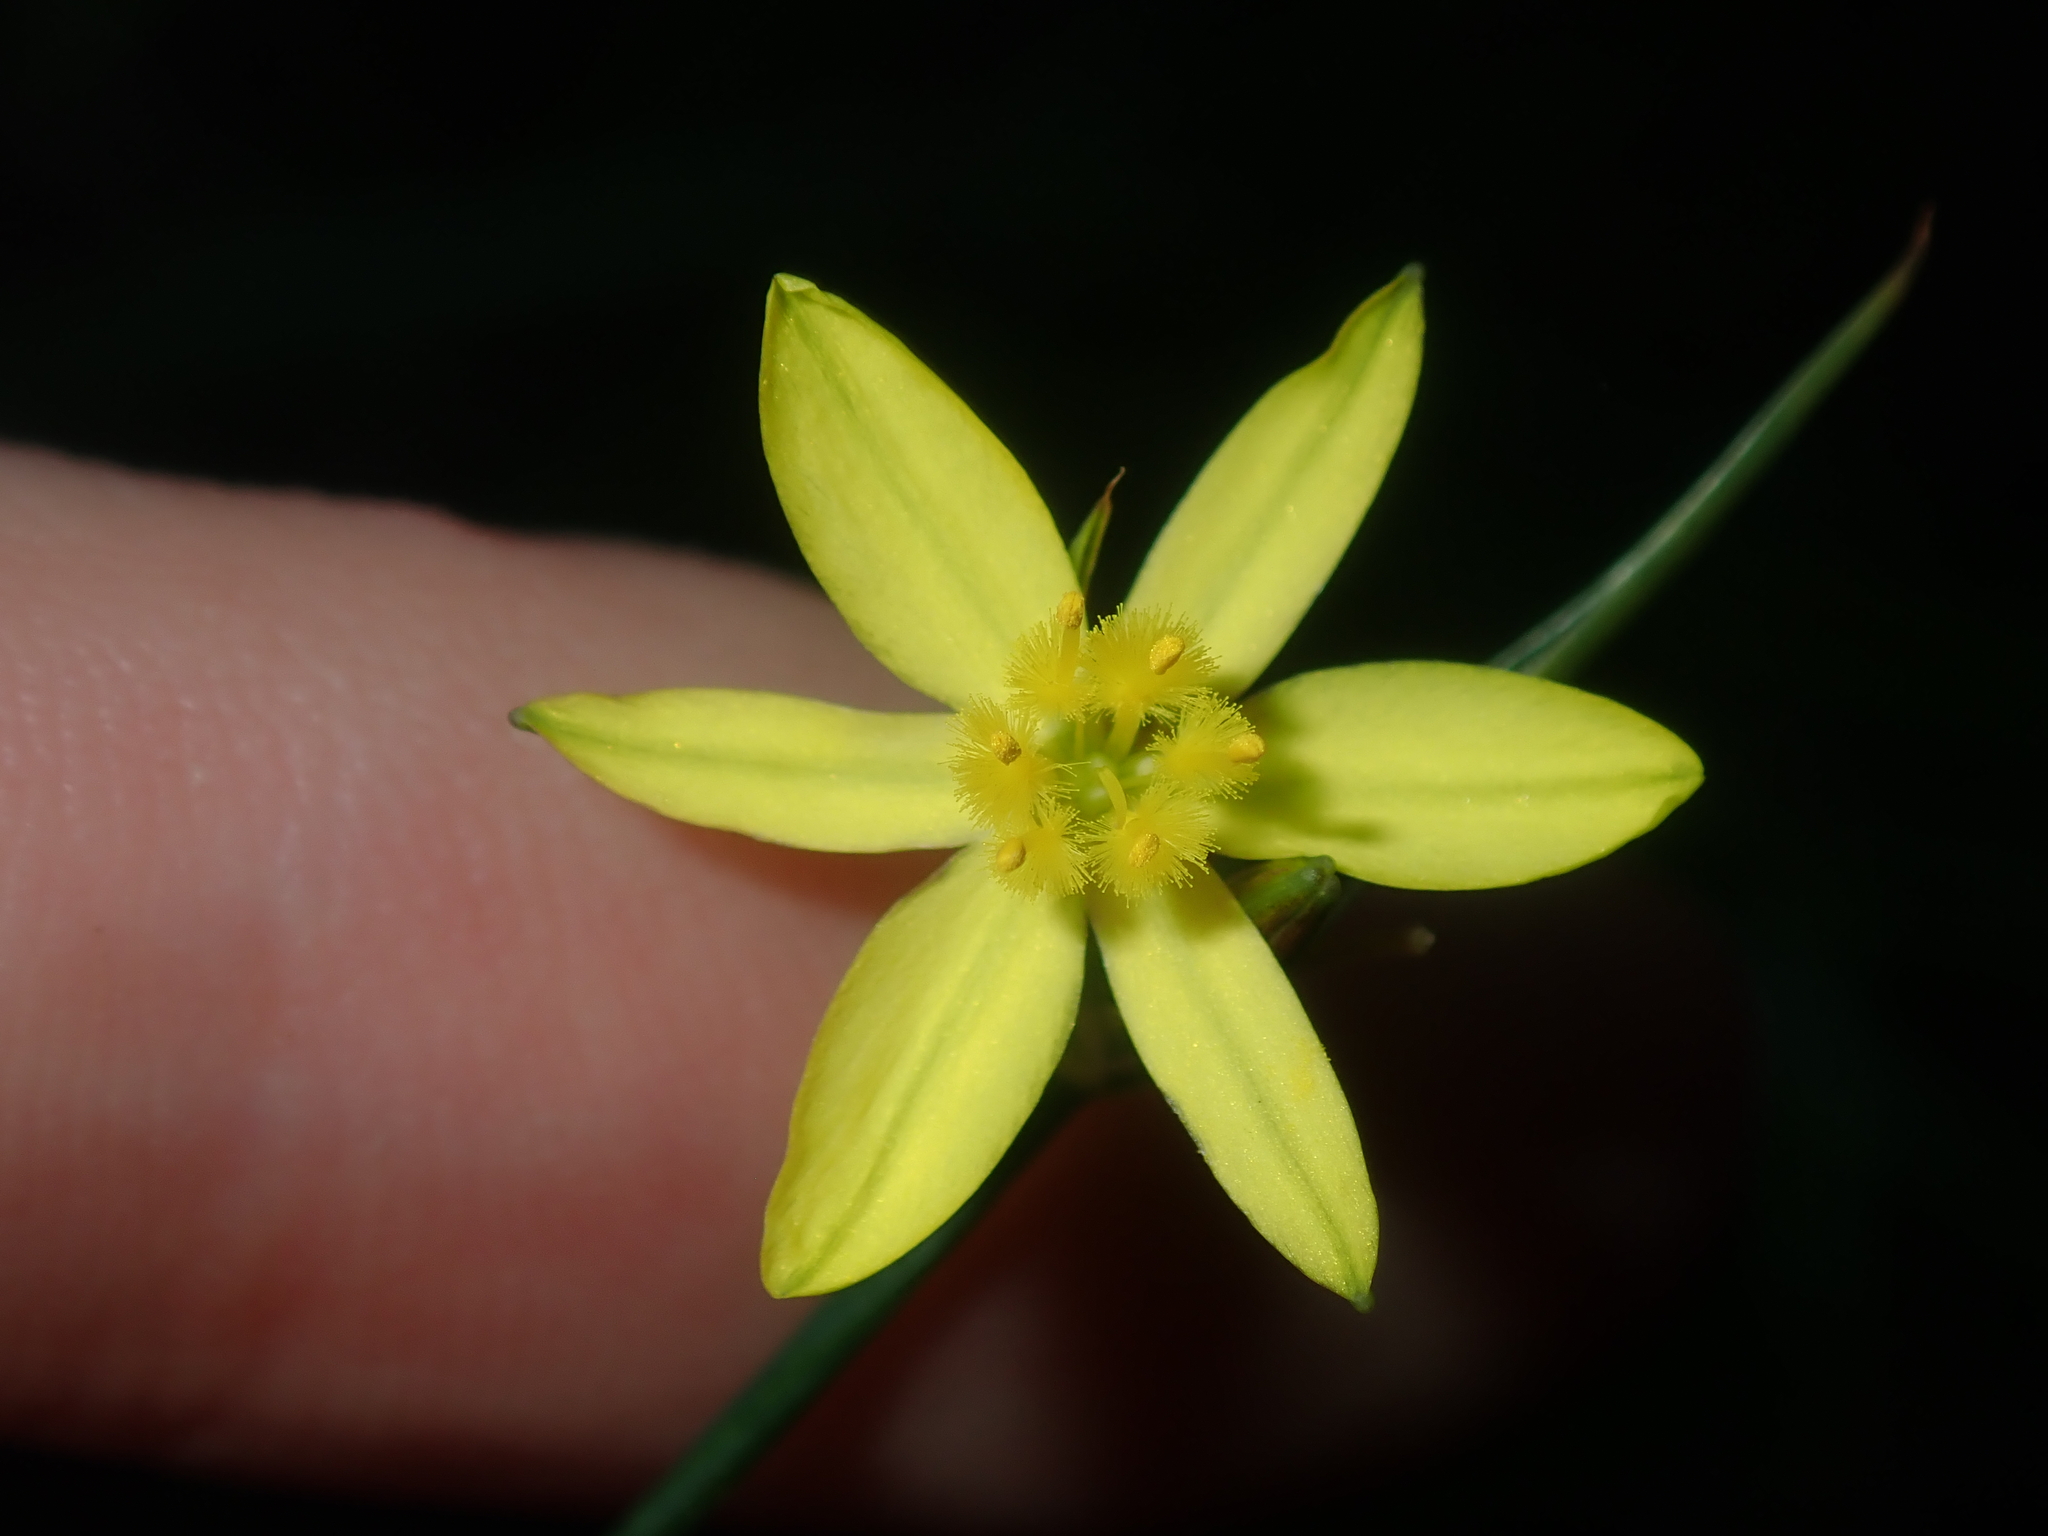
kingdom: Plantae
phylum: Tracheophyta
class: Liliopsida
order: Asparagales
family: Asphodelaceae
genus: Tricoryne
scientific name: Tricoryne elatior
